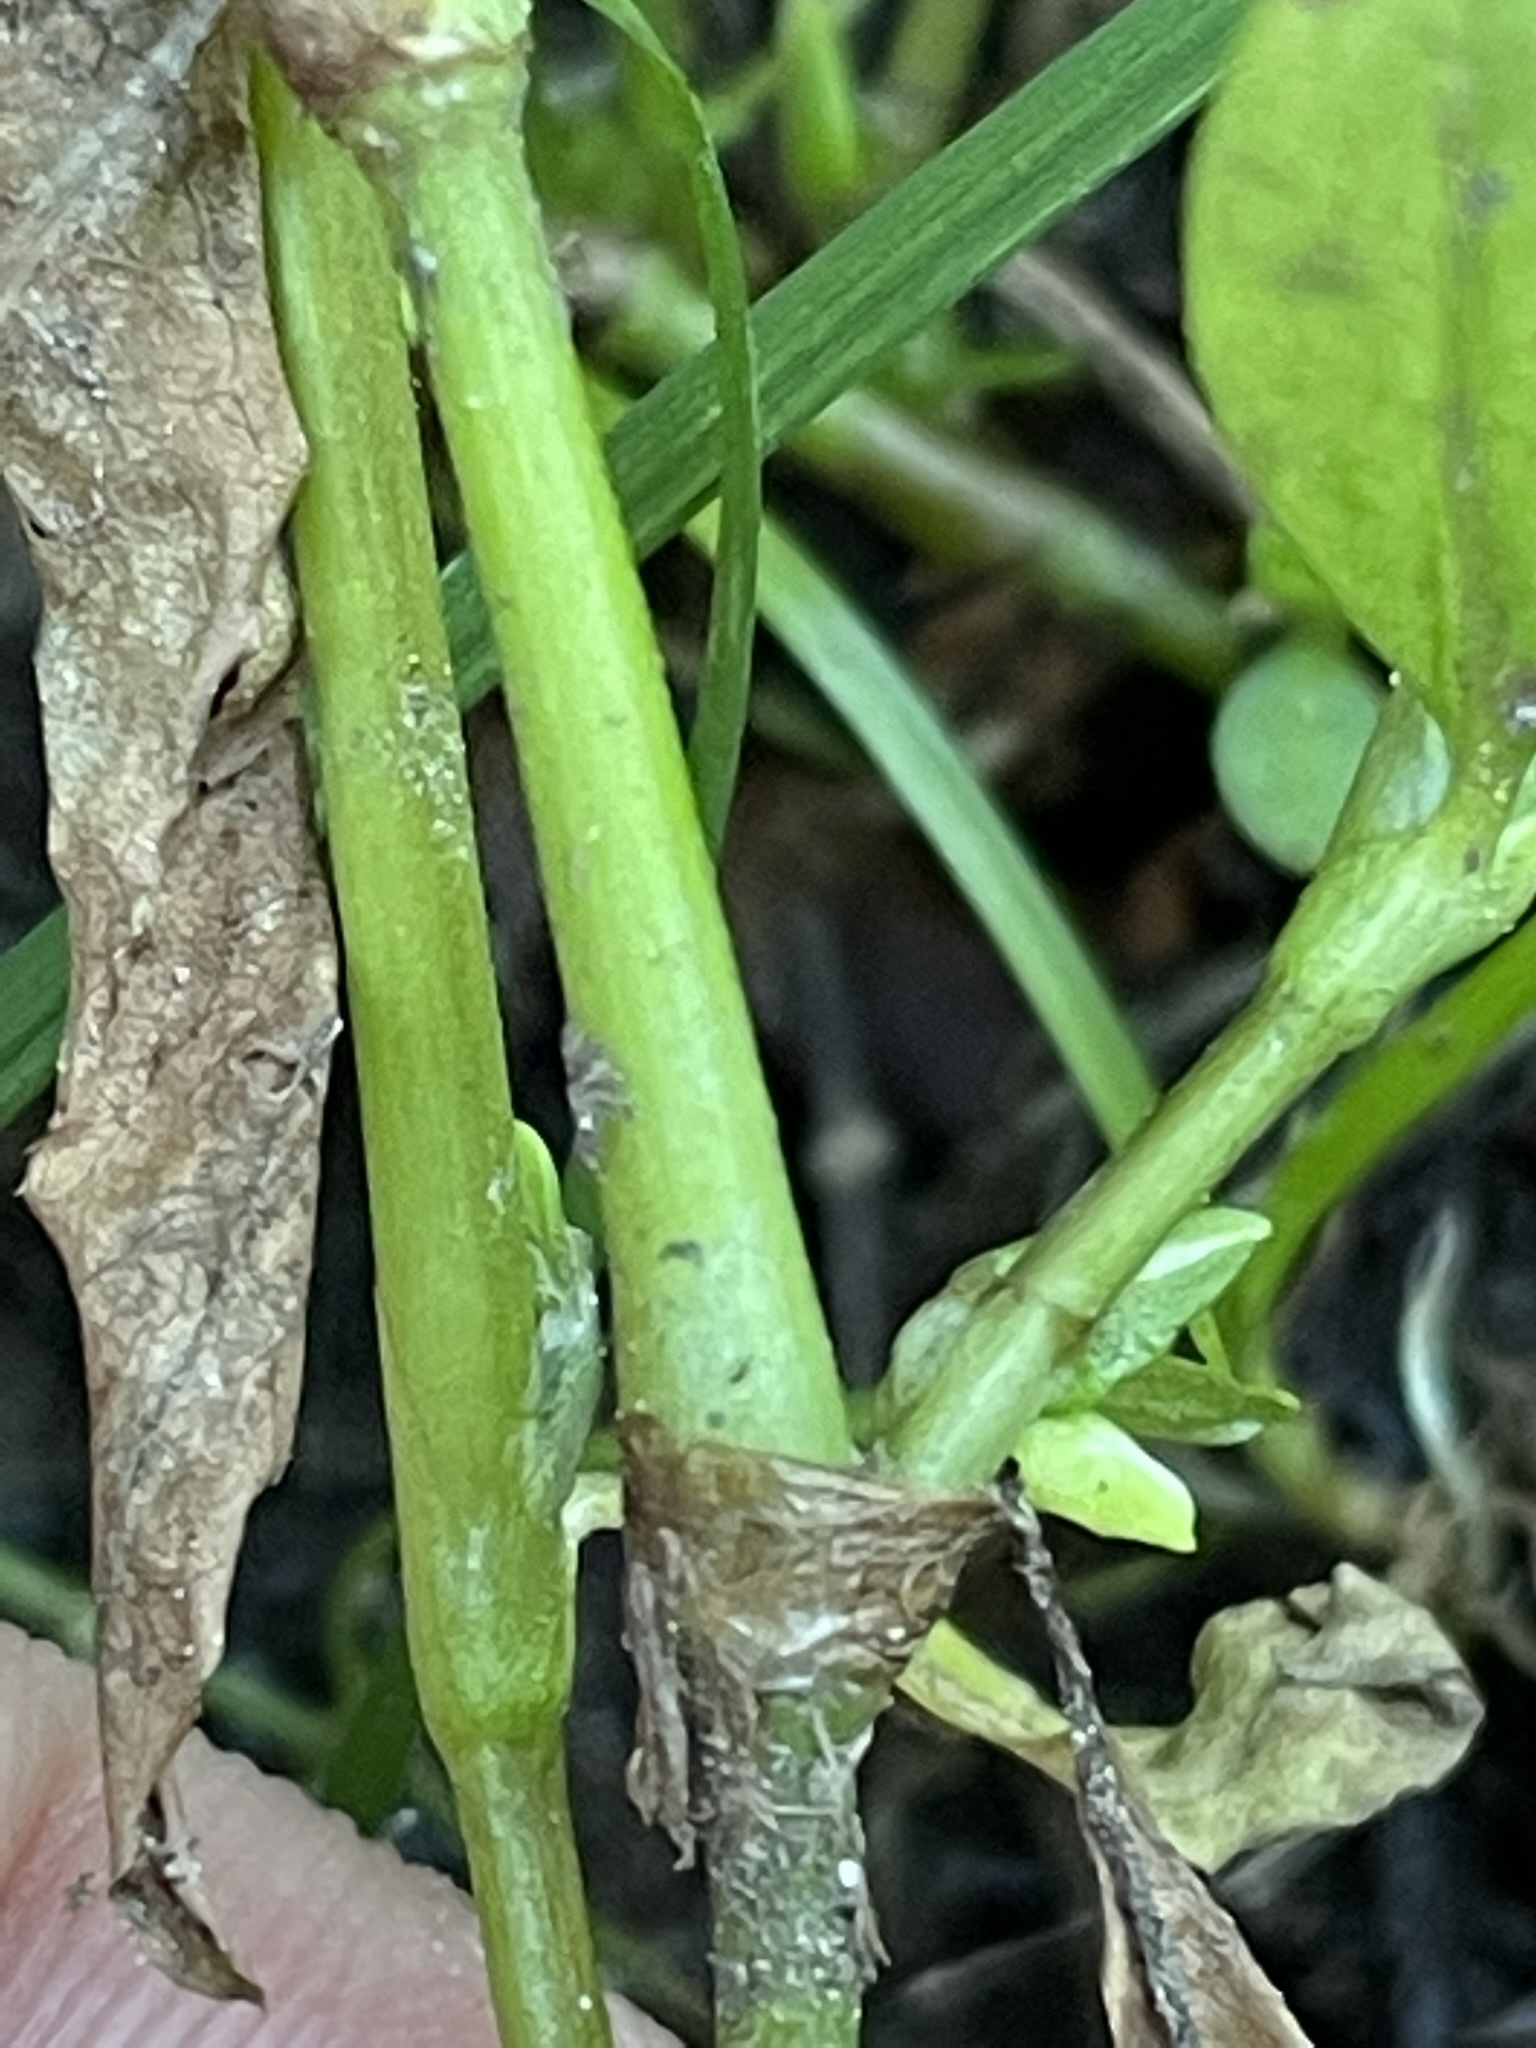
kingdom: Plantae
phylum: Tracheophyta
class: Magnoliopsida
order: Caryophyllales
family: Polygonaceae
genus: Persicaria
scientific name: Persicaria hydropiper
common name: Water-pepper
